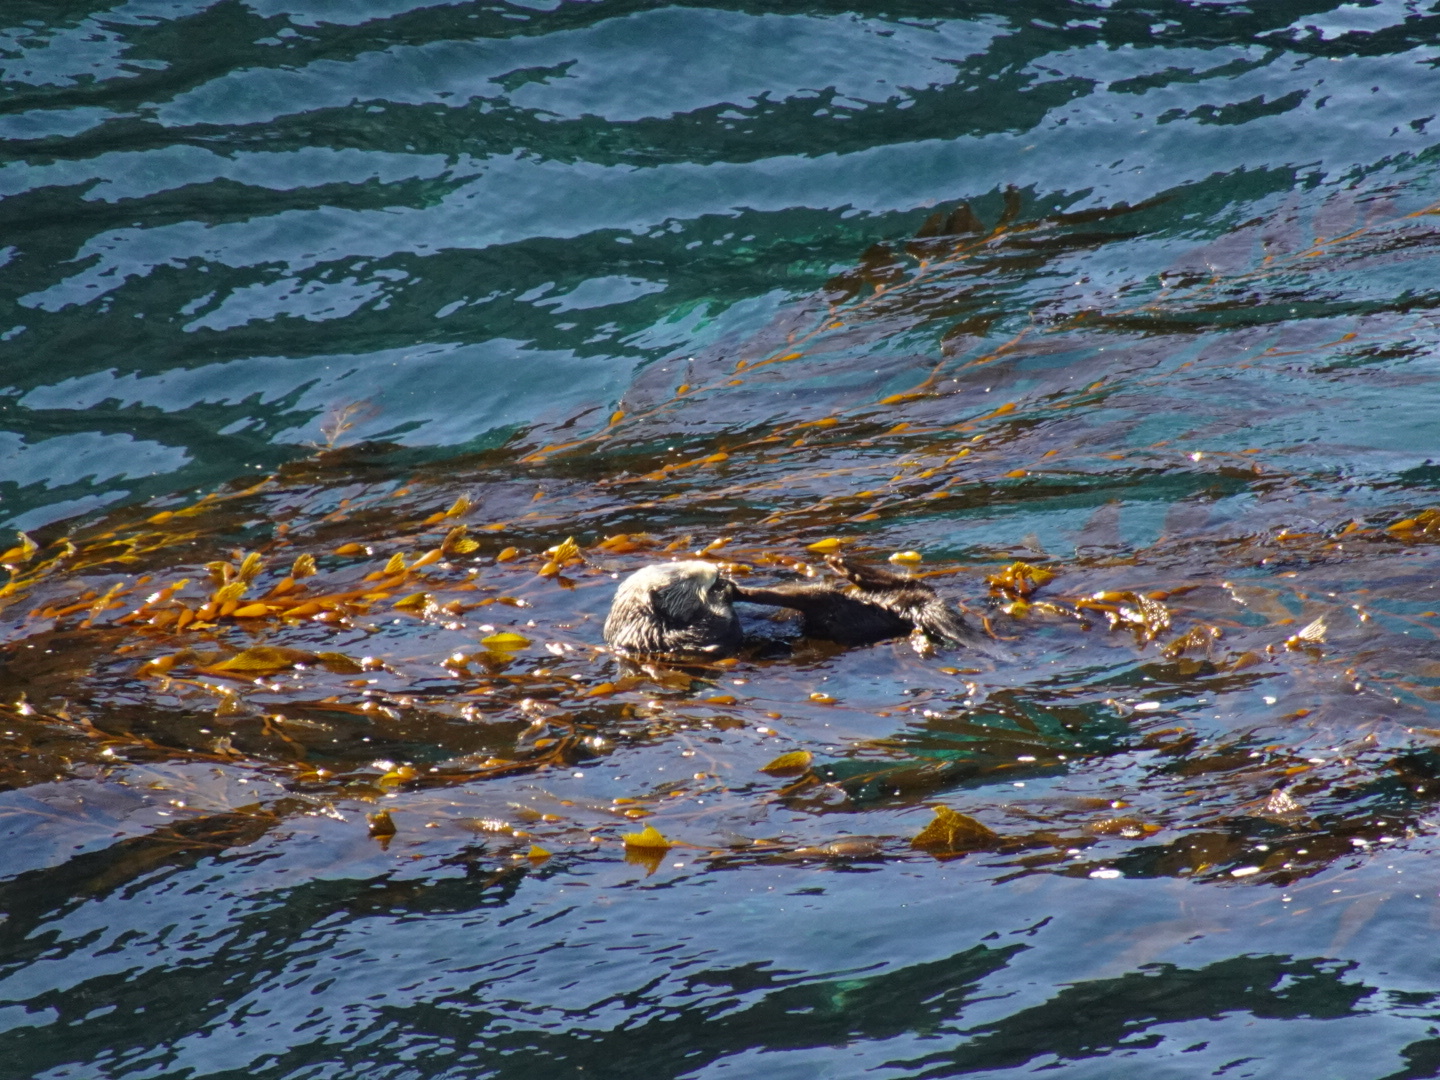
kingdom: Animalia
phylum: Chordata
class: Mammalia
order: Carnivora
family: Mustelidae
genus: Enhydra
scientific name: Enhydra lutris
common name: Sea otter
